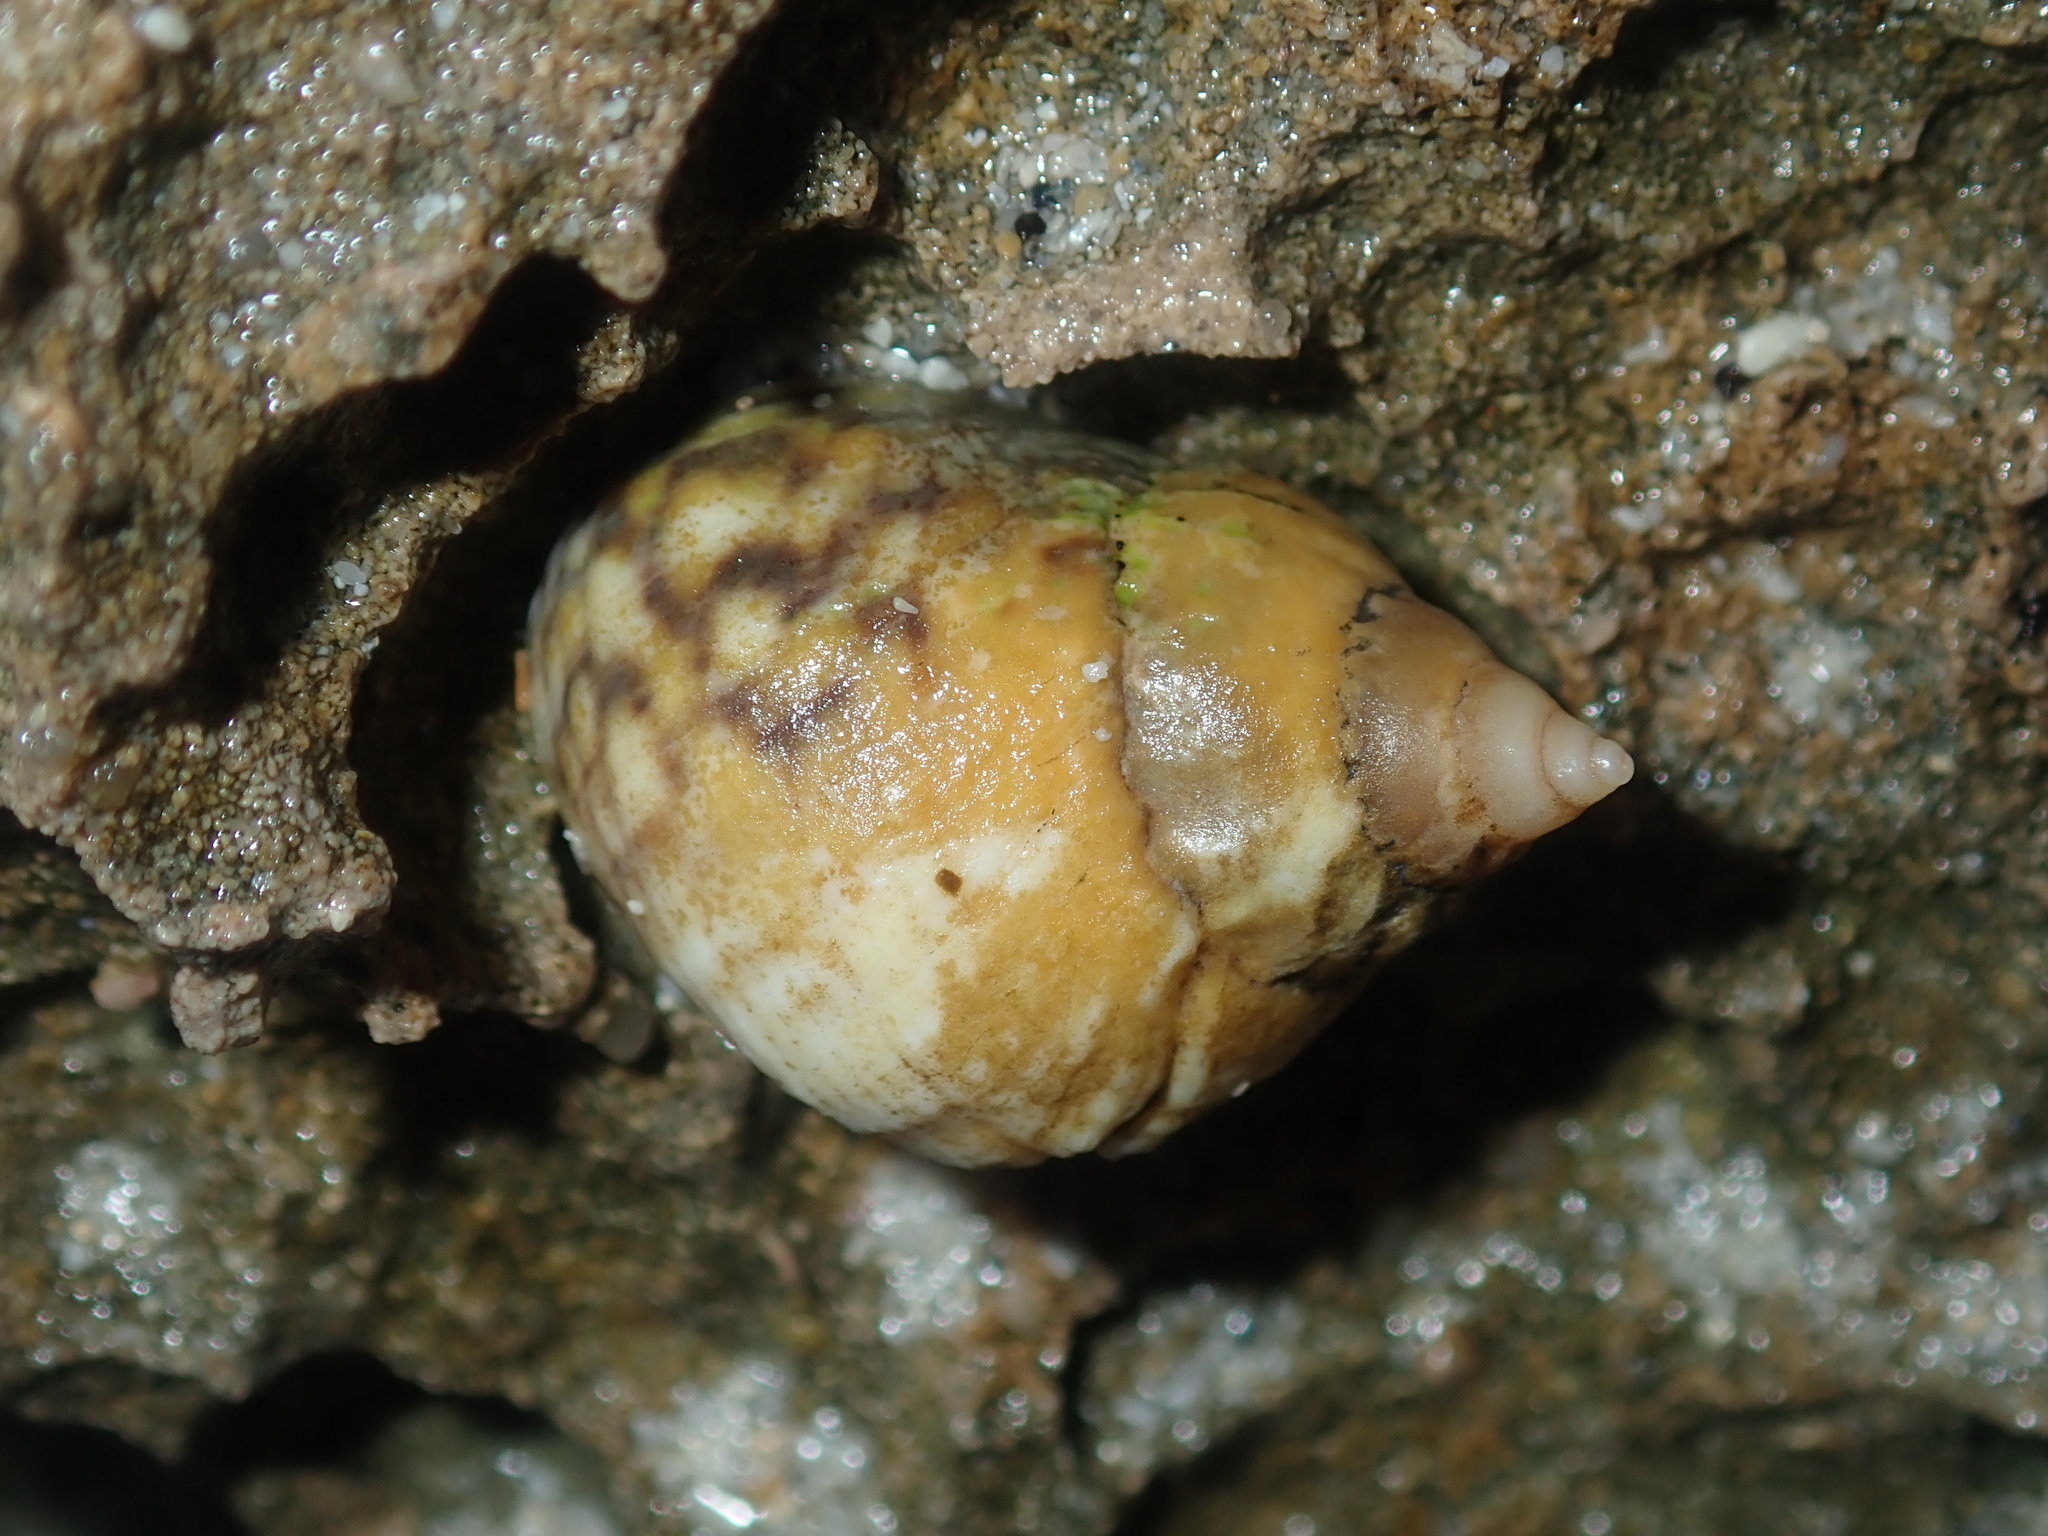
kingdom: Animalia
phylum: Mollusca
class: Gastropoda
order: Littorinimorpha
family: Littorinidae
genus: Echinolittorina
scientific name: Echinolittorina australis
